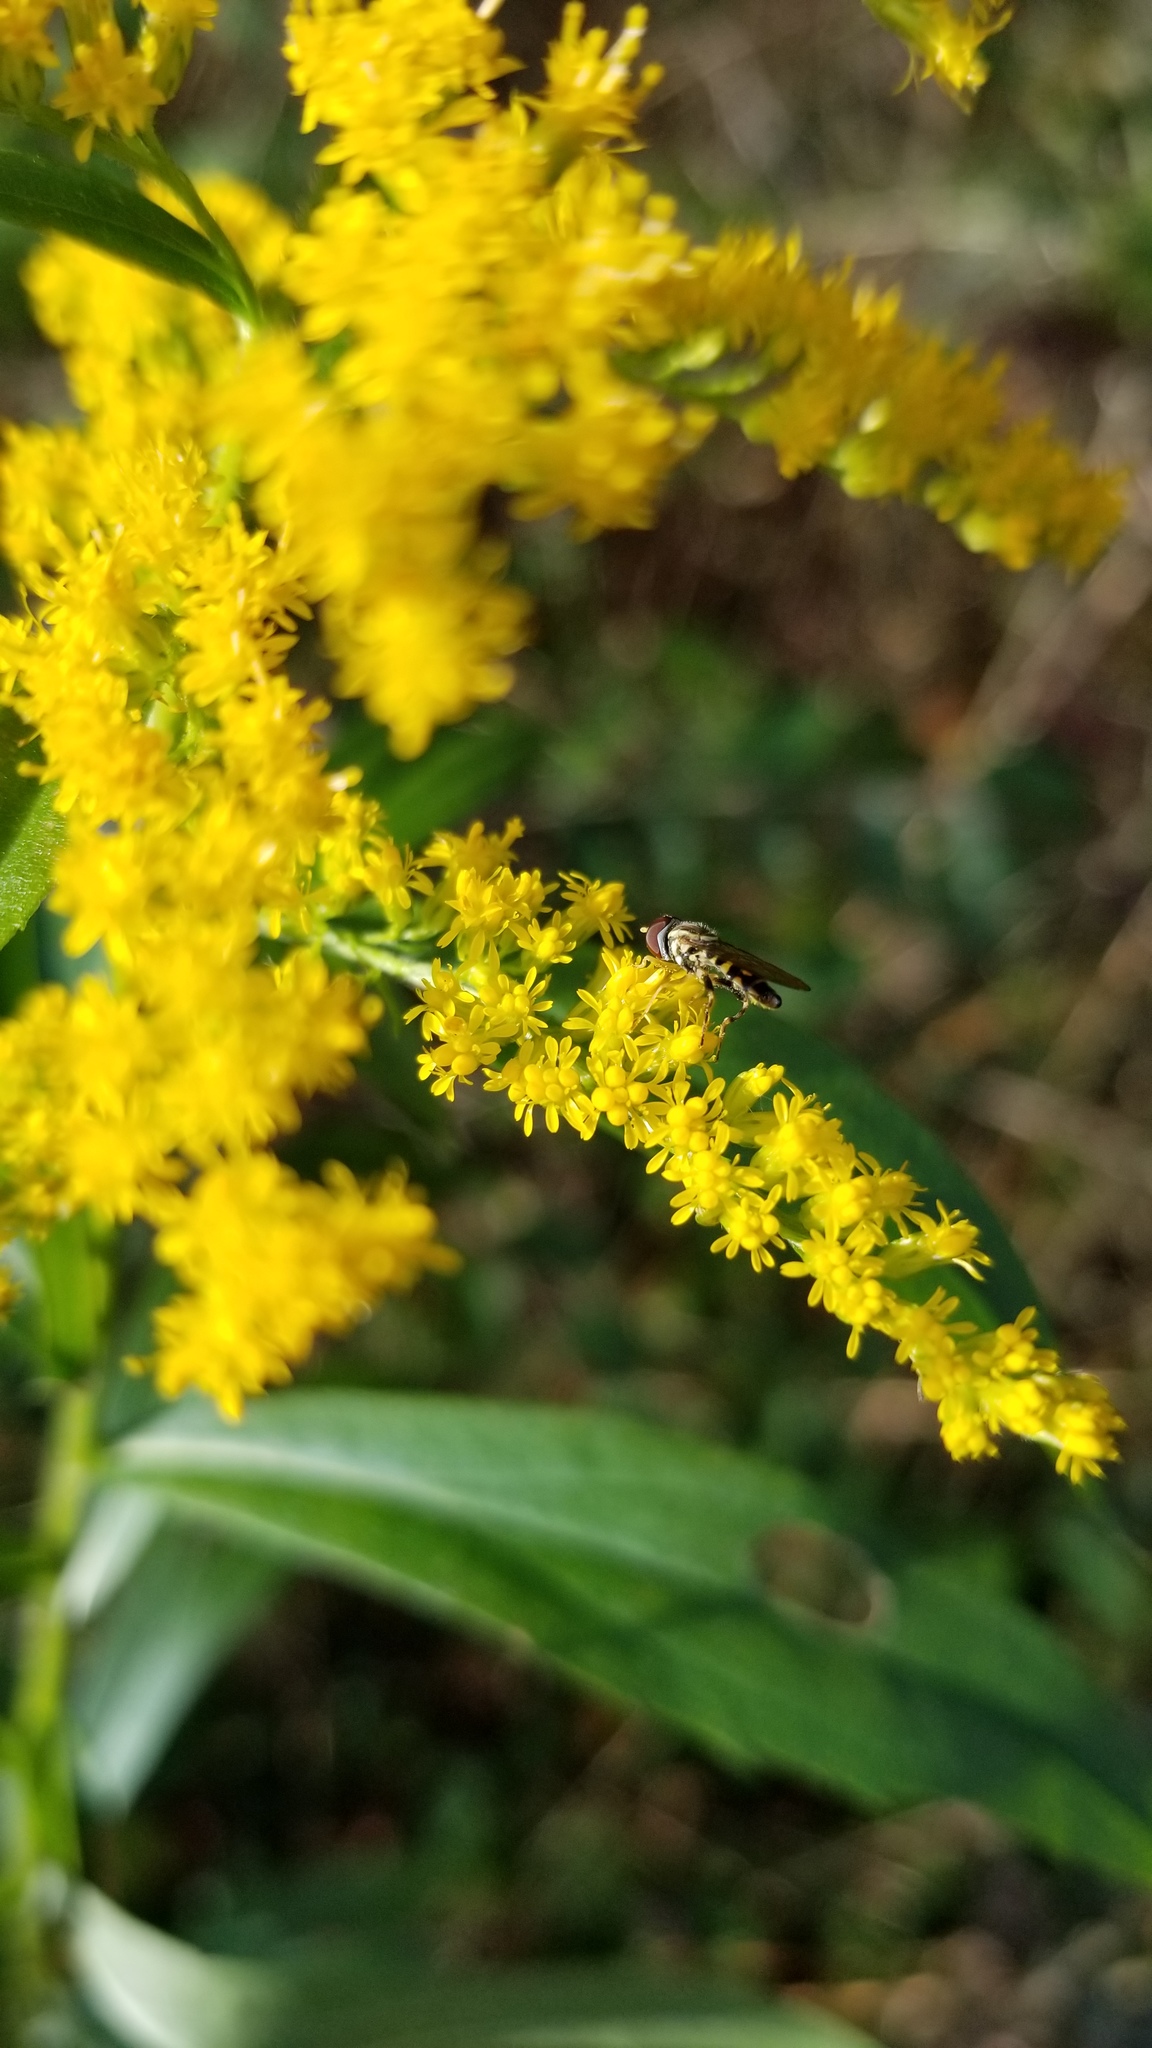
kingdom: Animalia
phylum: Arthropoda
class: Insecta
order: Diptera
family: Syrphidae
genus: Toxomerus
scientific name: Toxomerus geminatus
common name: Eastern calligrapher
